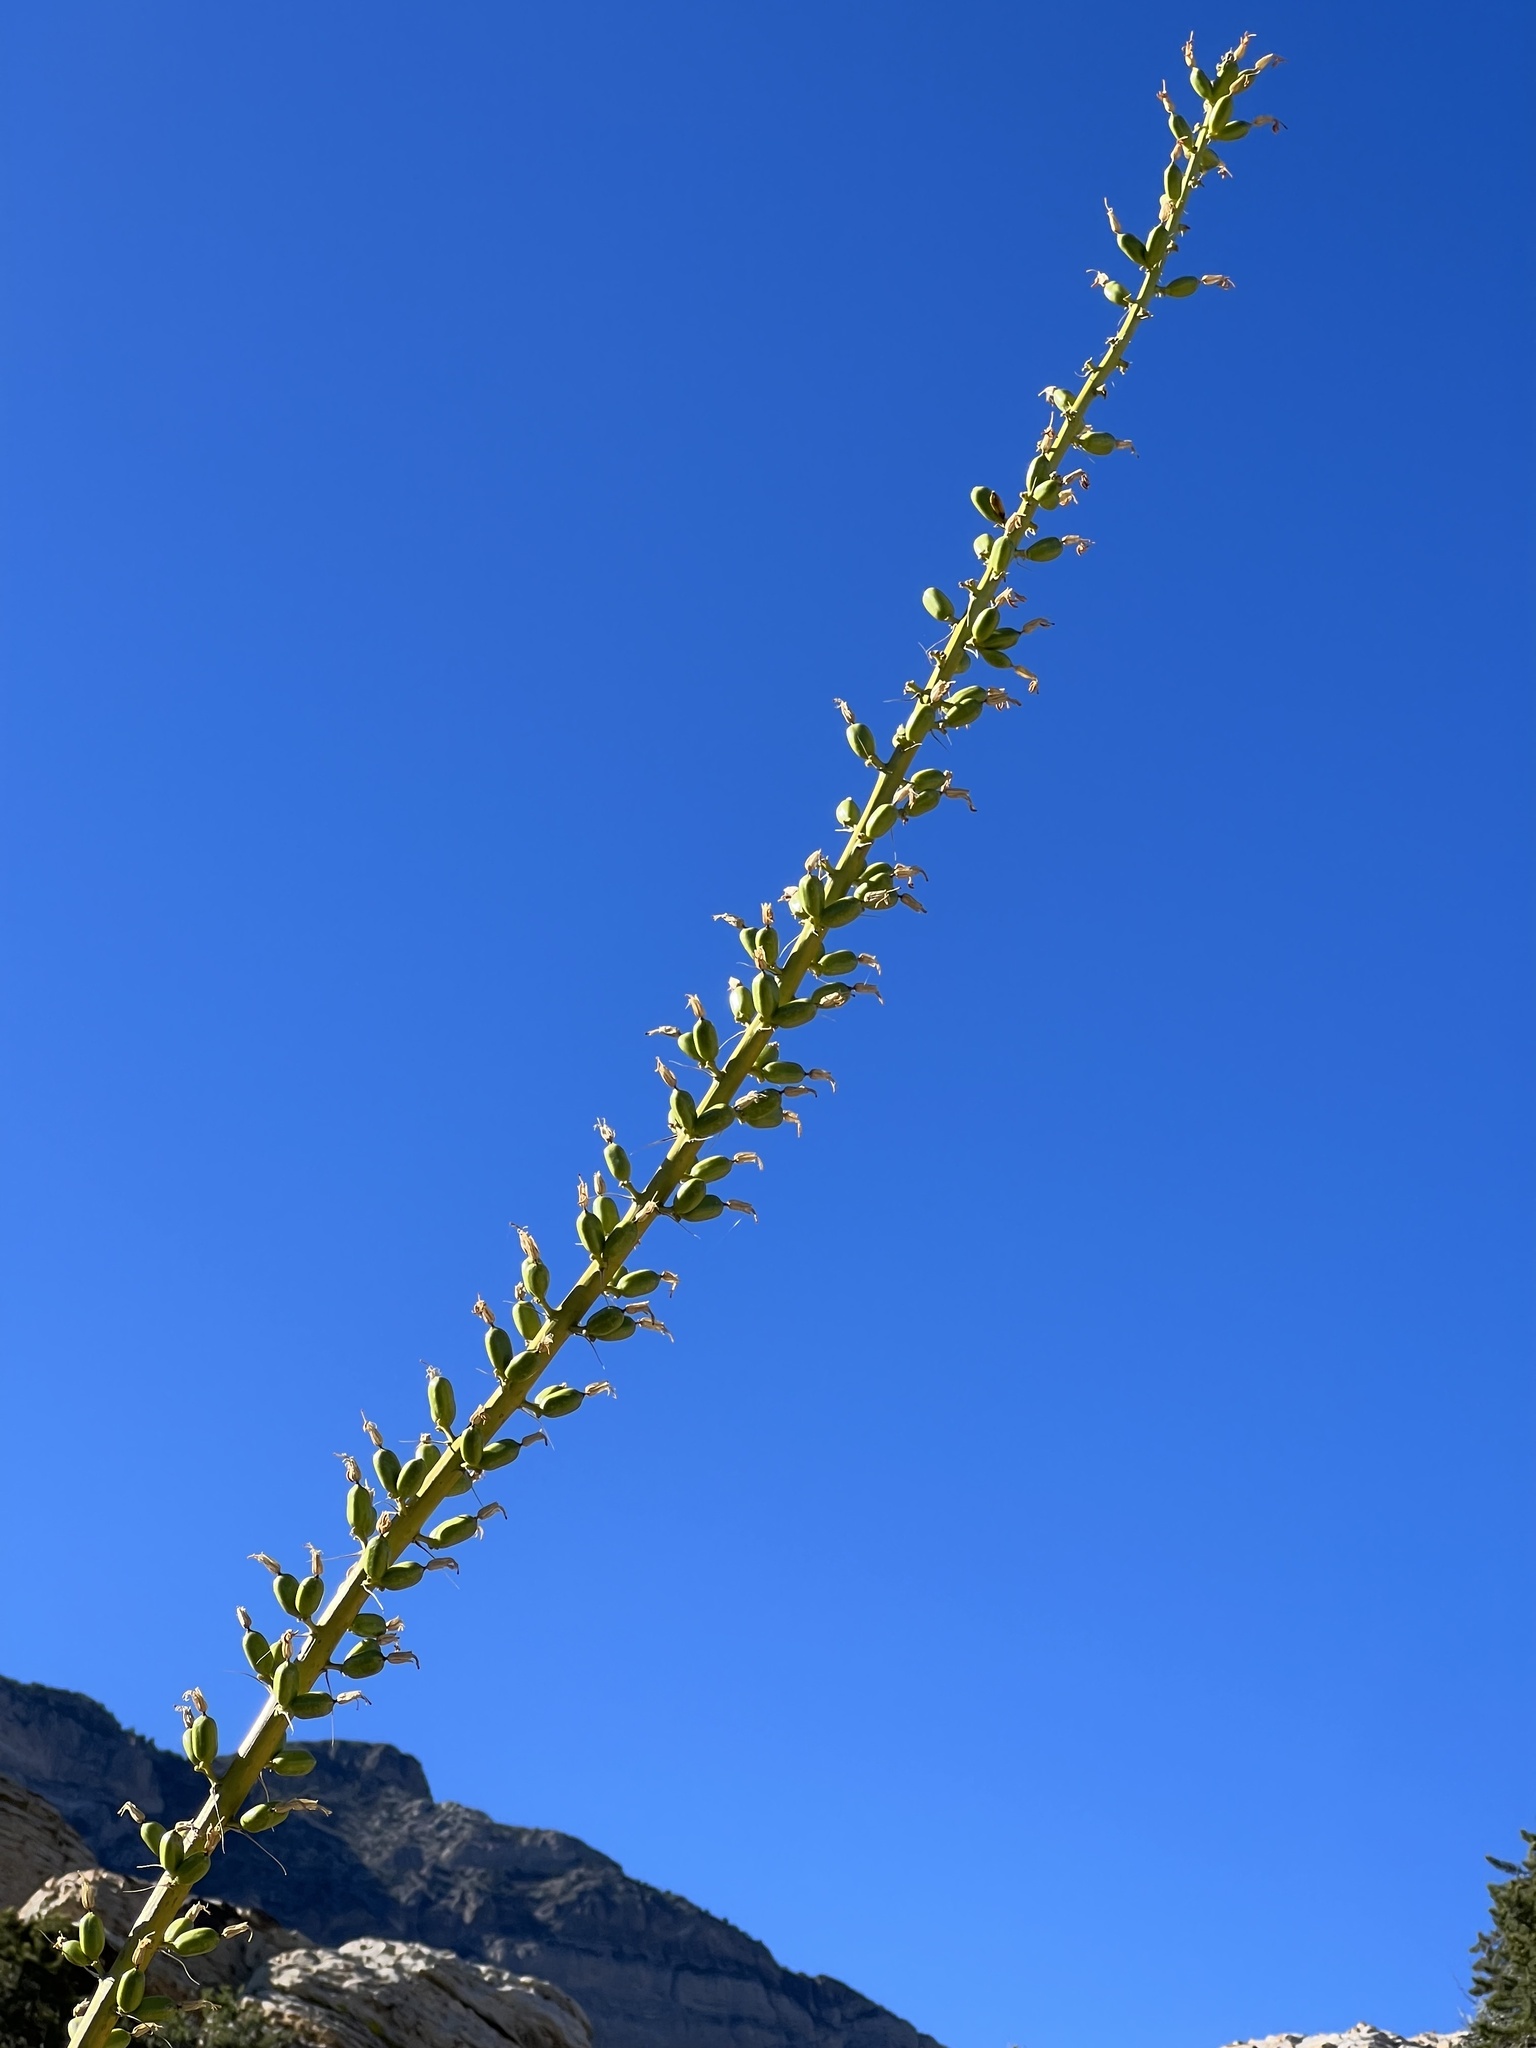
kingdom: Plantae
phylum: Tracheophyta
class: Liliopsida
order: Asparagales
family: Asparagaceae
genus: Agave
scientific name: Agave utahensis
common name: Utah agave
